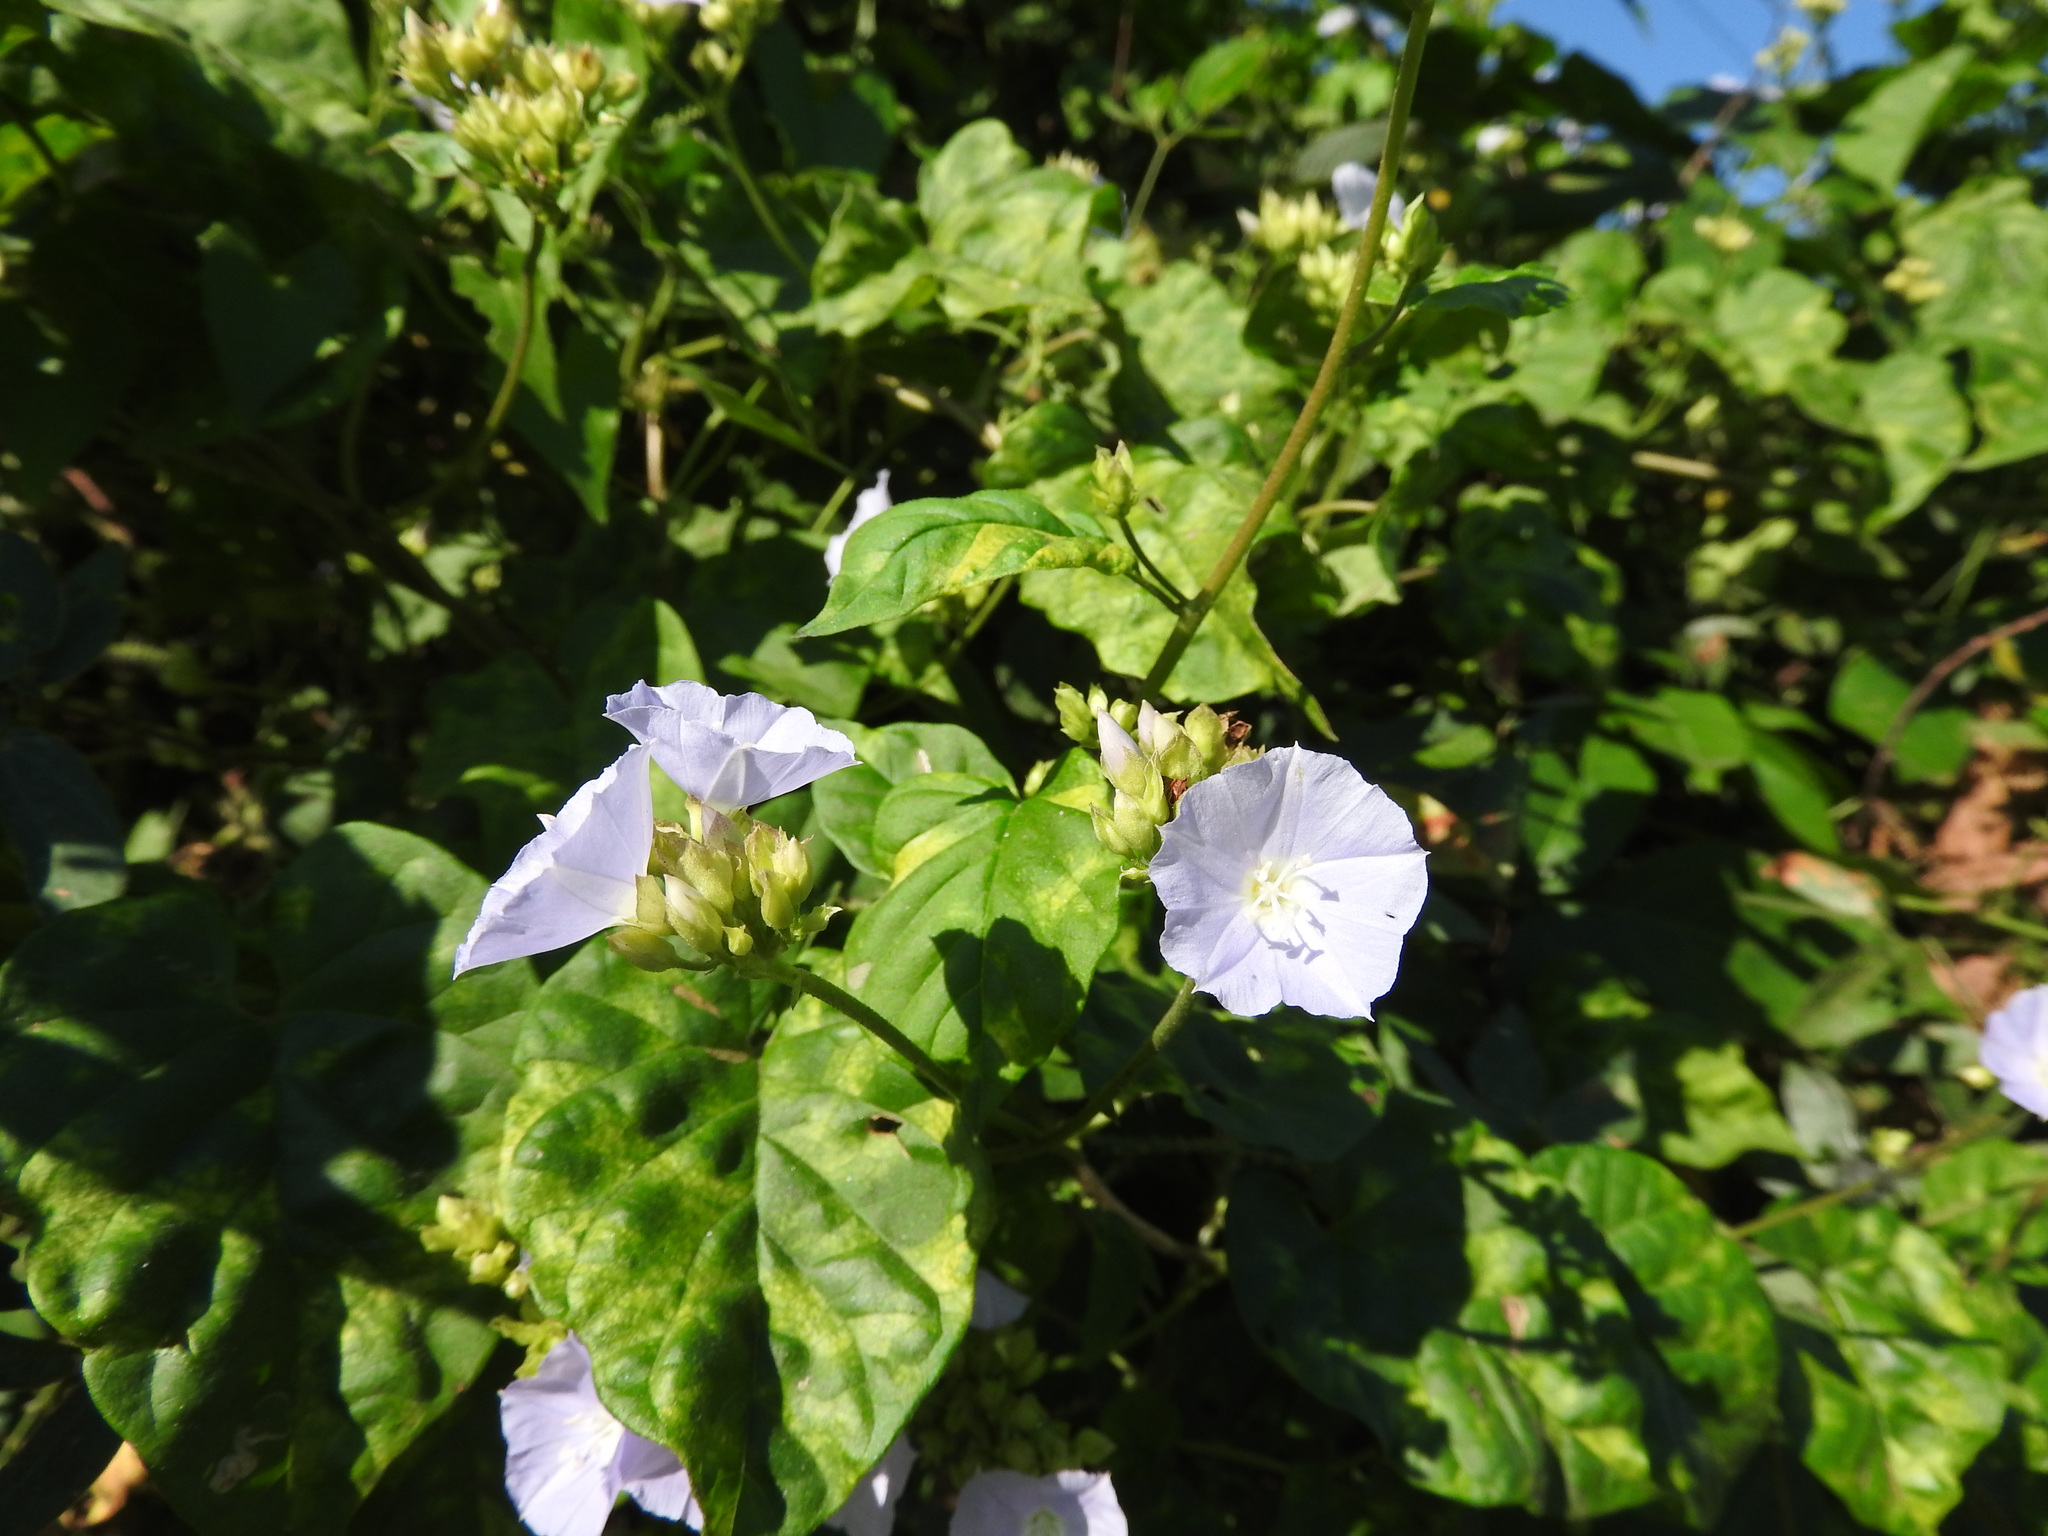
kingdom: Plantae
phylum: Tracheophyta
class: Magnoliopsida
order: Solanales
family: Convolvulaceae
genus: Jacquemontia
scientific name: Jacquemontia oaxacana
